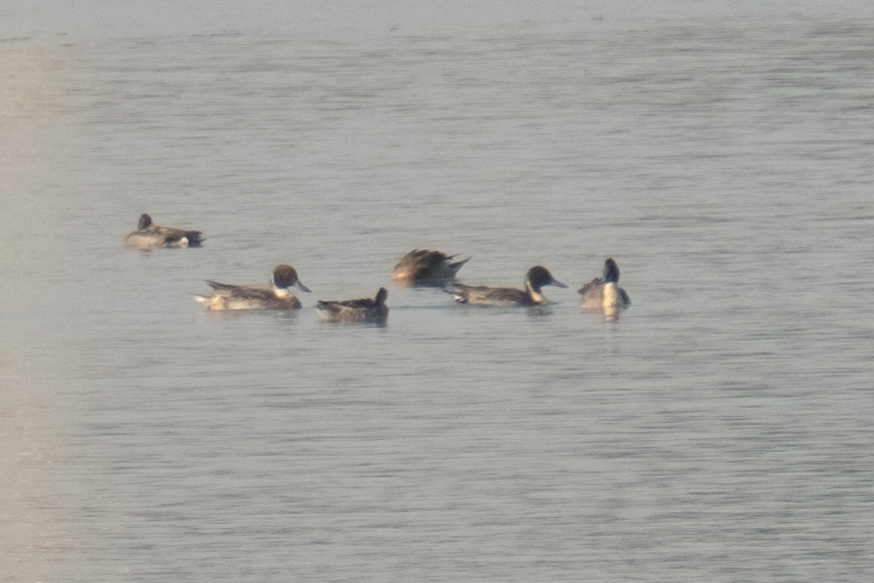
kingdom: Animalia
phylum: Chordata
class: Aves
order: Anseriformes
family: Anatidae
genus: Anas
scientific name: Anas acuta
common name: Northern pintail
